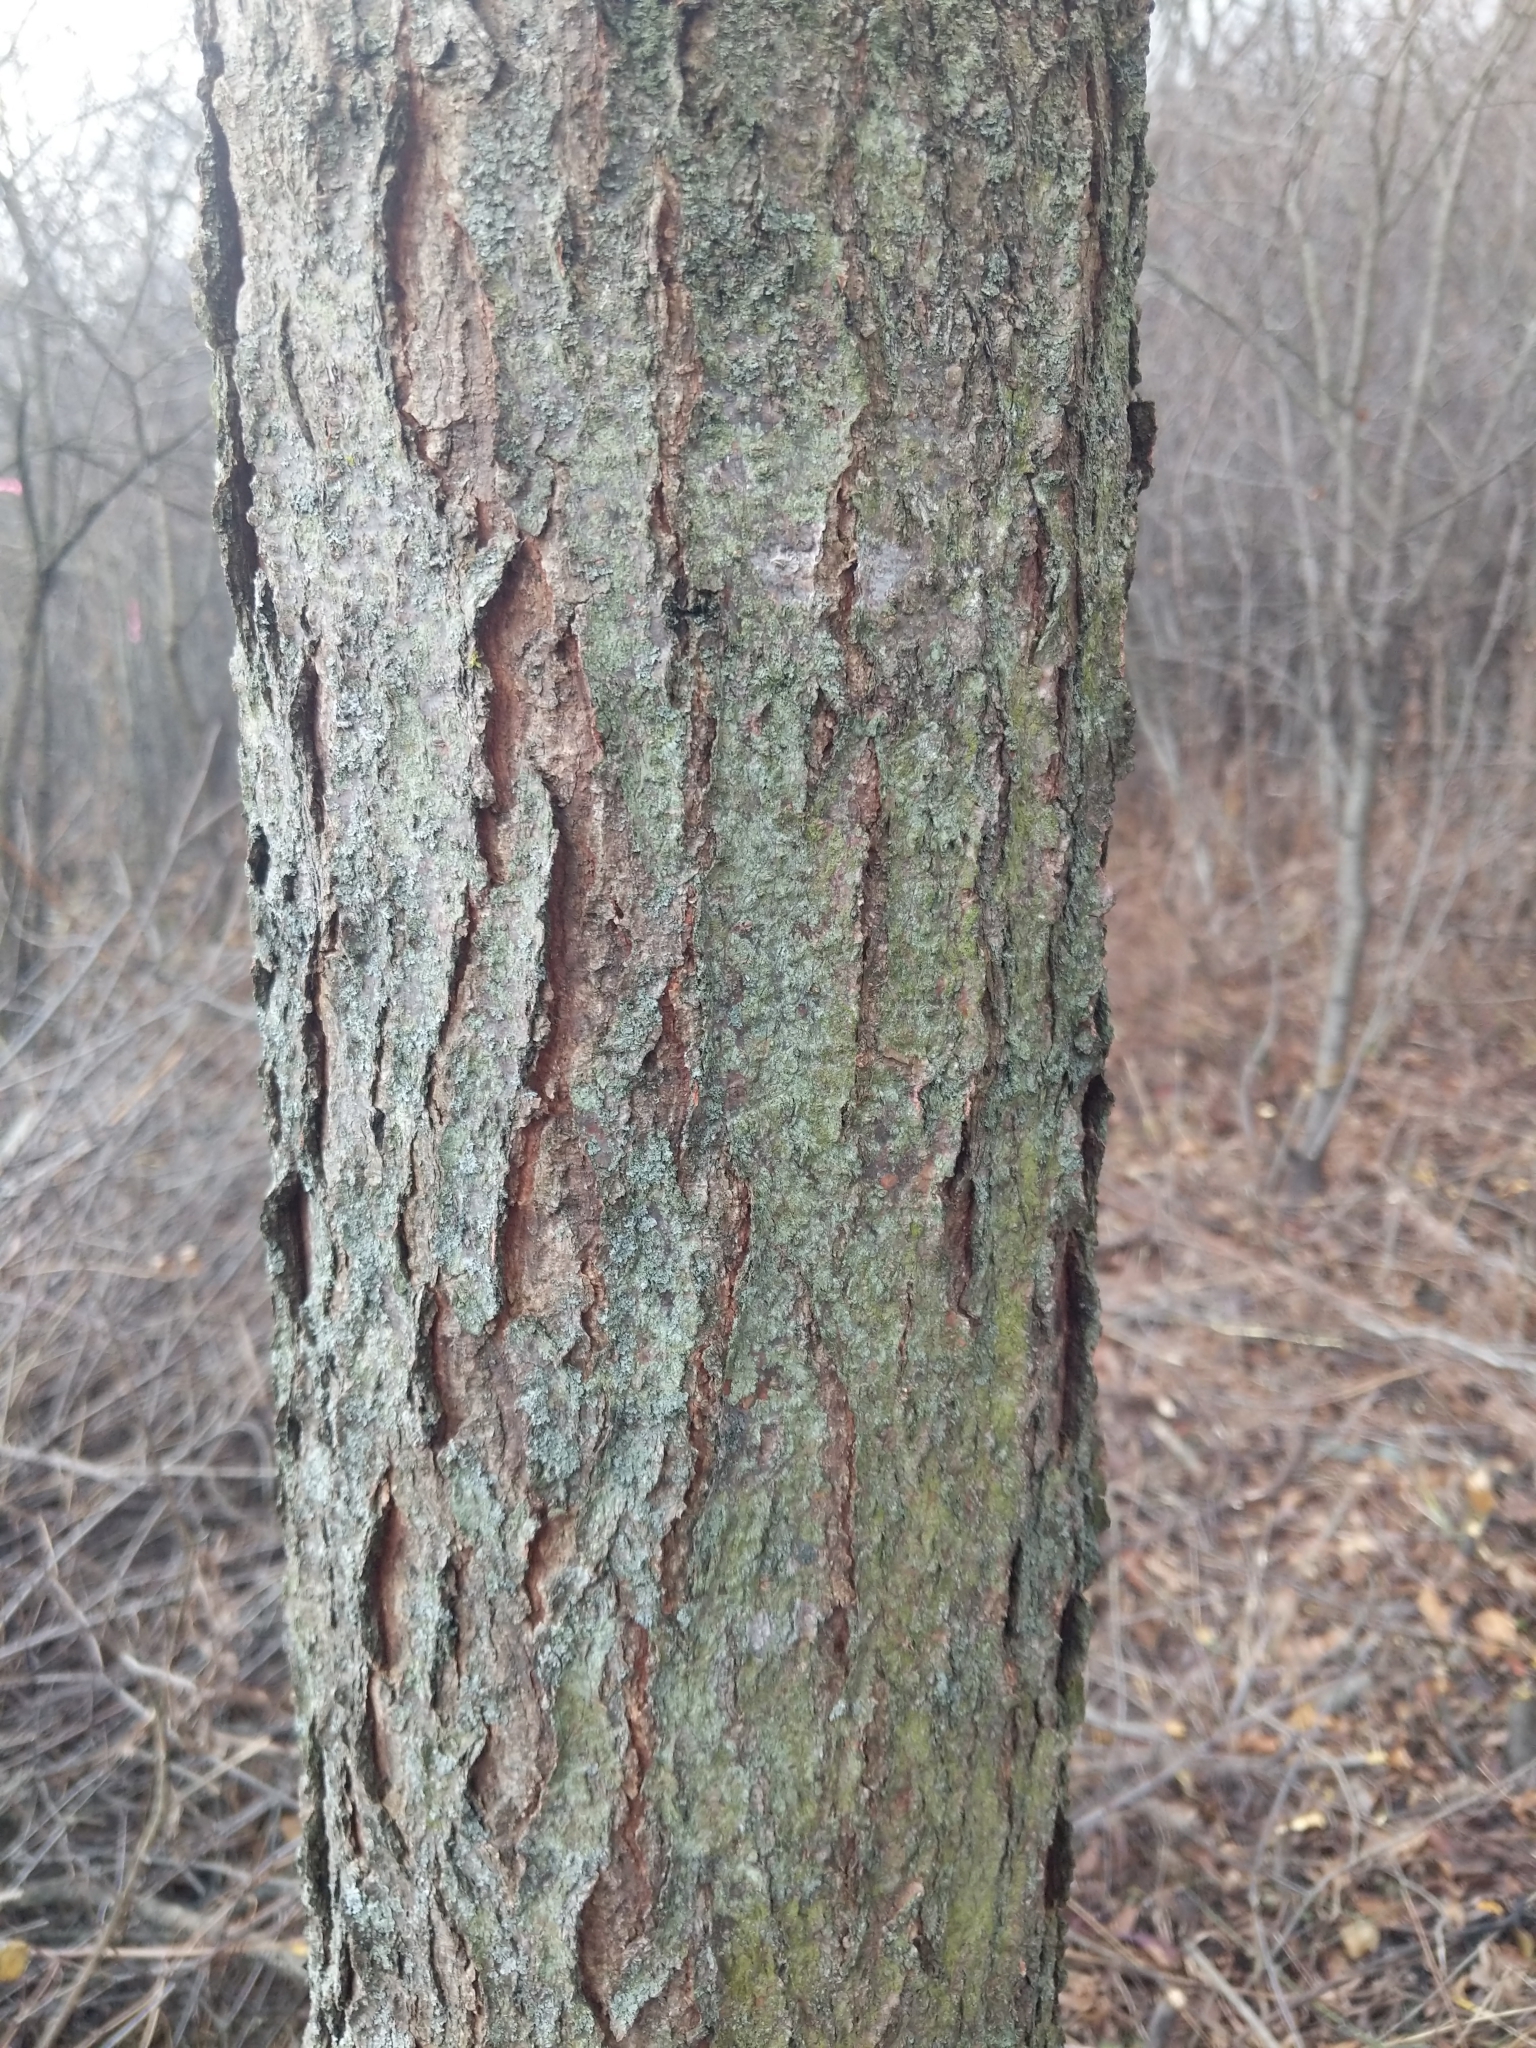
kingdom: Plantae
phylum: Tracheophyta
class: Magnoliopsida
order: Fabales
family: Fabaceae
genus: Gleditsia
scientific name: Gleditsia triacanthos
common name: Common honeylocust
